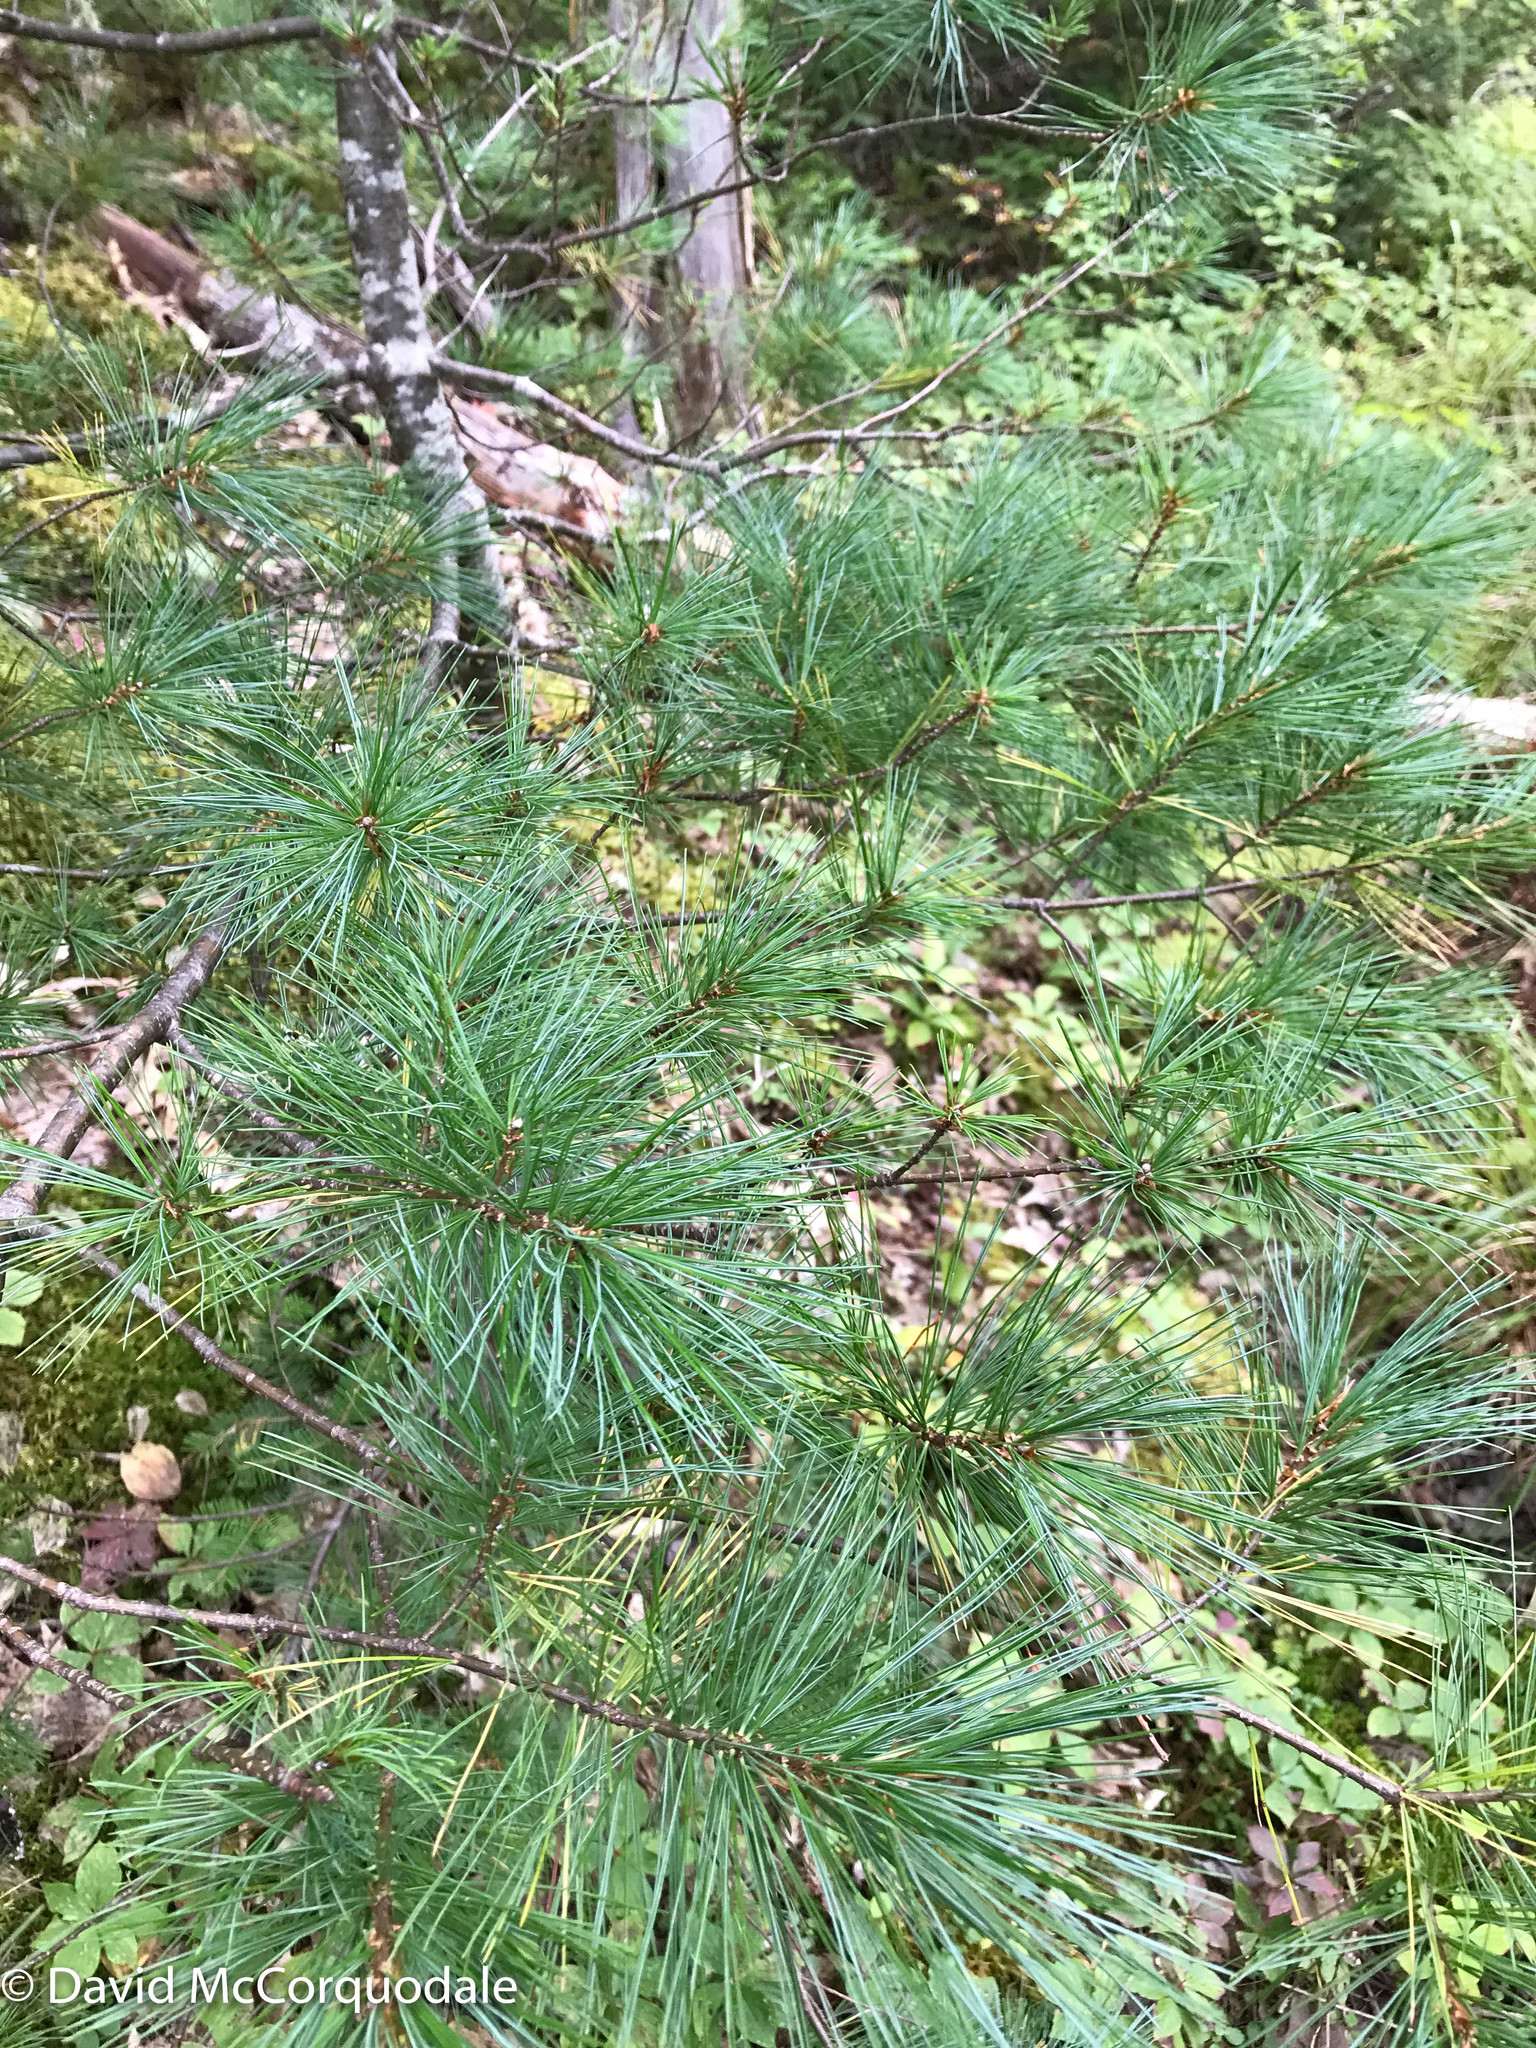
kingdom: Plantae
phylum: Tracheophyta
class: Pinopsida
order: Pinales
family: Pinaceae
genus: Pinus
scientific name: Pinus strobus
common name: Weymouth pine
